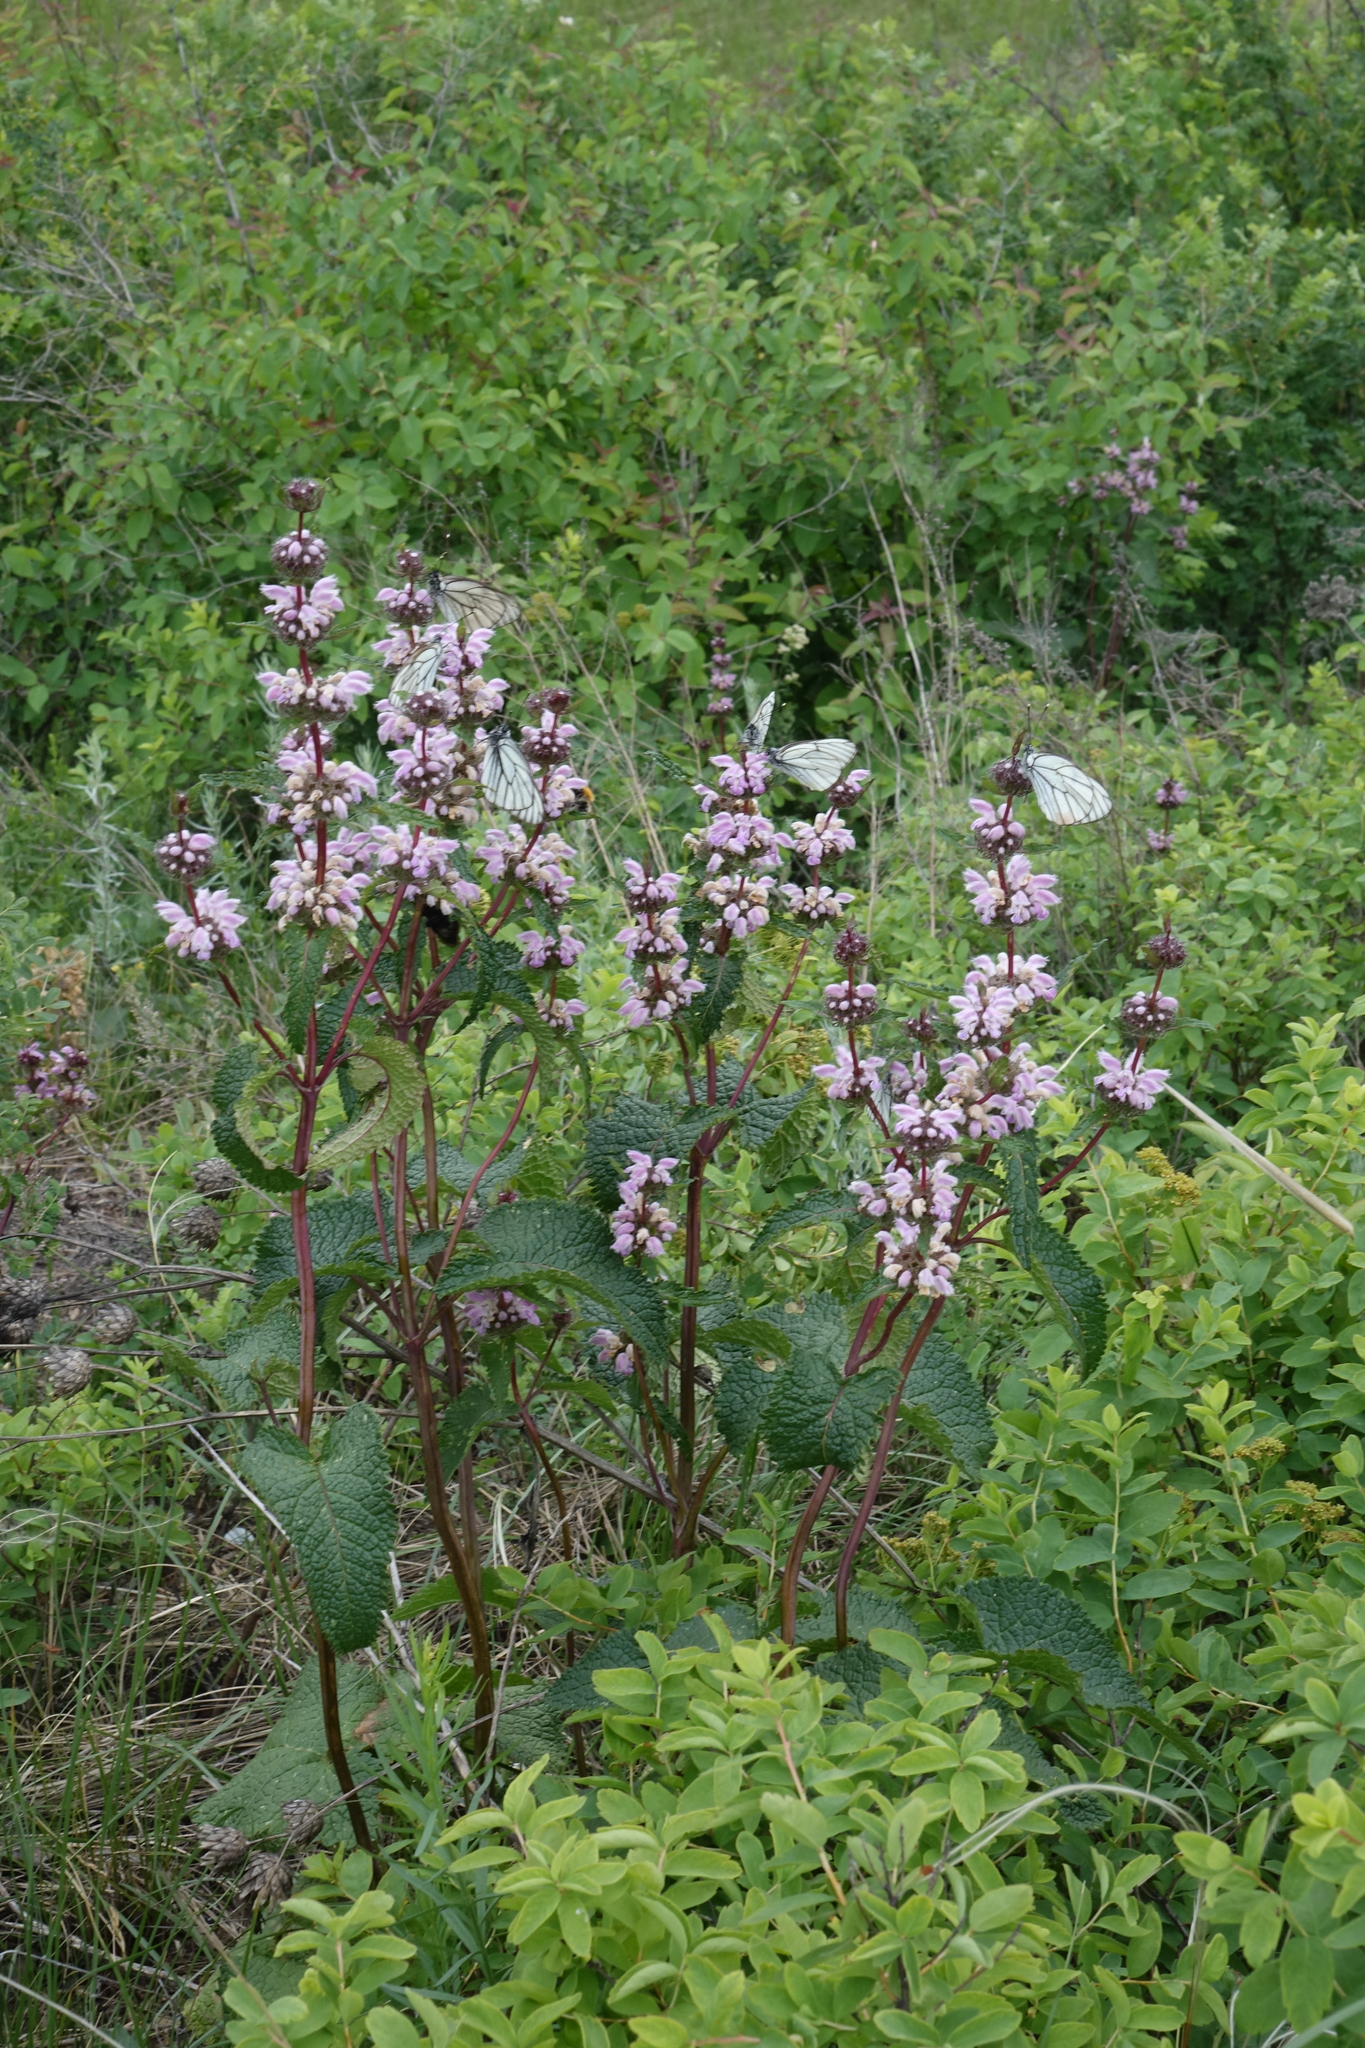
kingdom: Plantae
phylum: Tracheophyta
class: Magnoliopsida
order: Lamiales
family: Lamiaceae
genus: Phlomoides
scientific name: Phlomoides tuberosa
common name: Tuberous jerusalem sage
